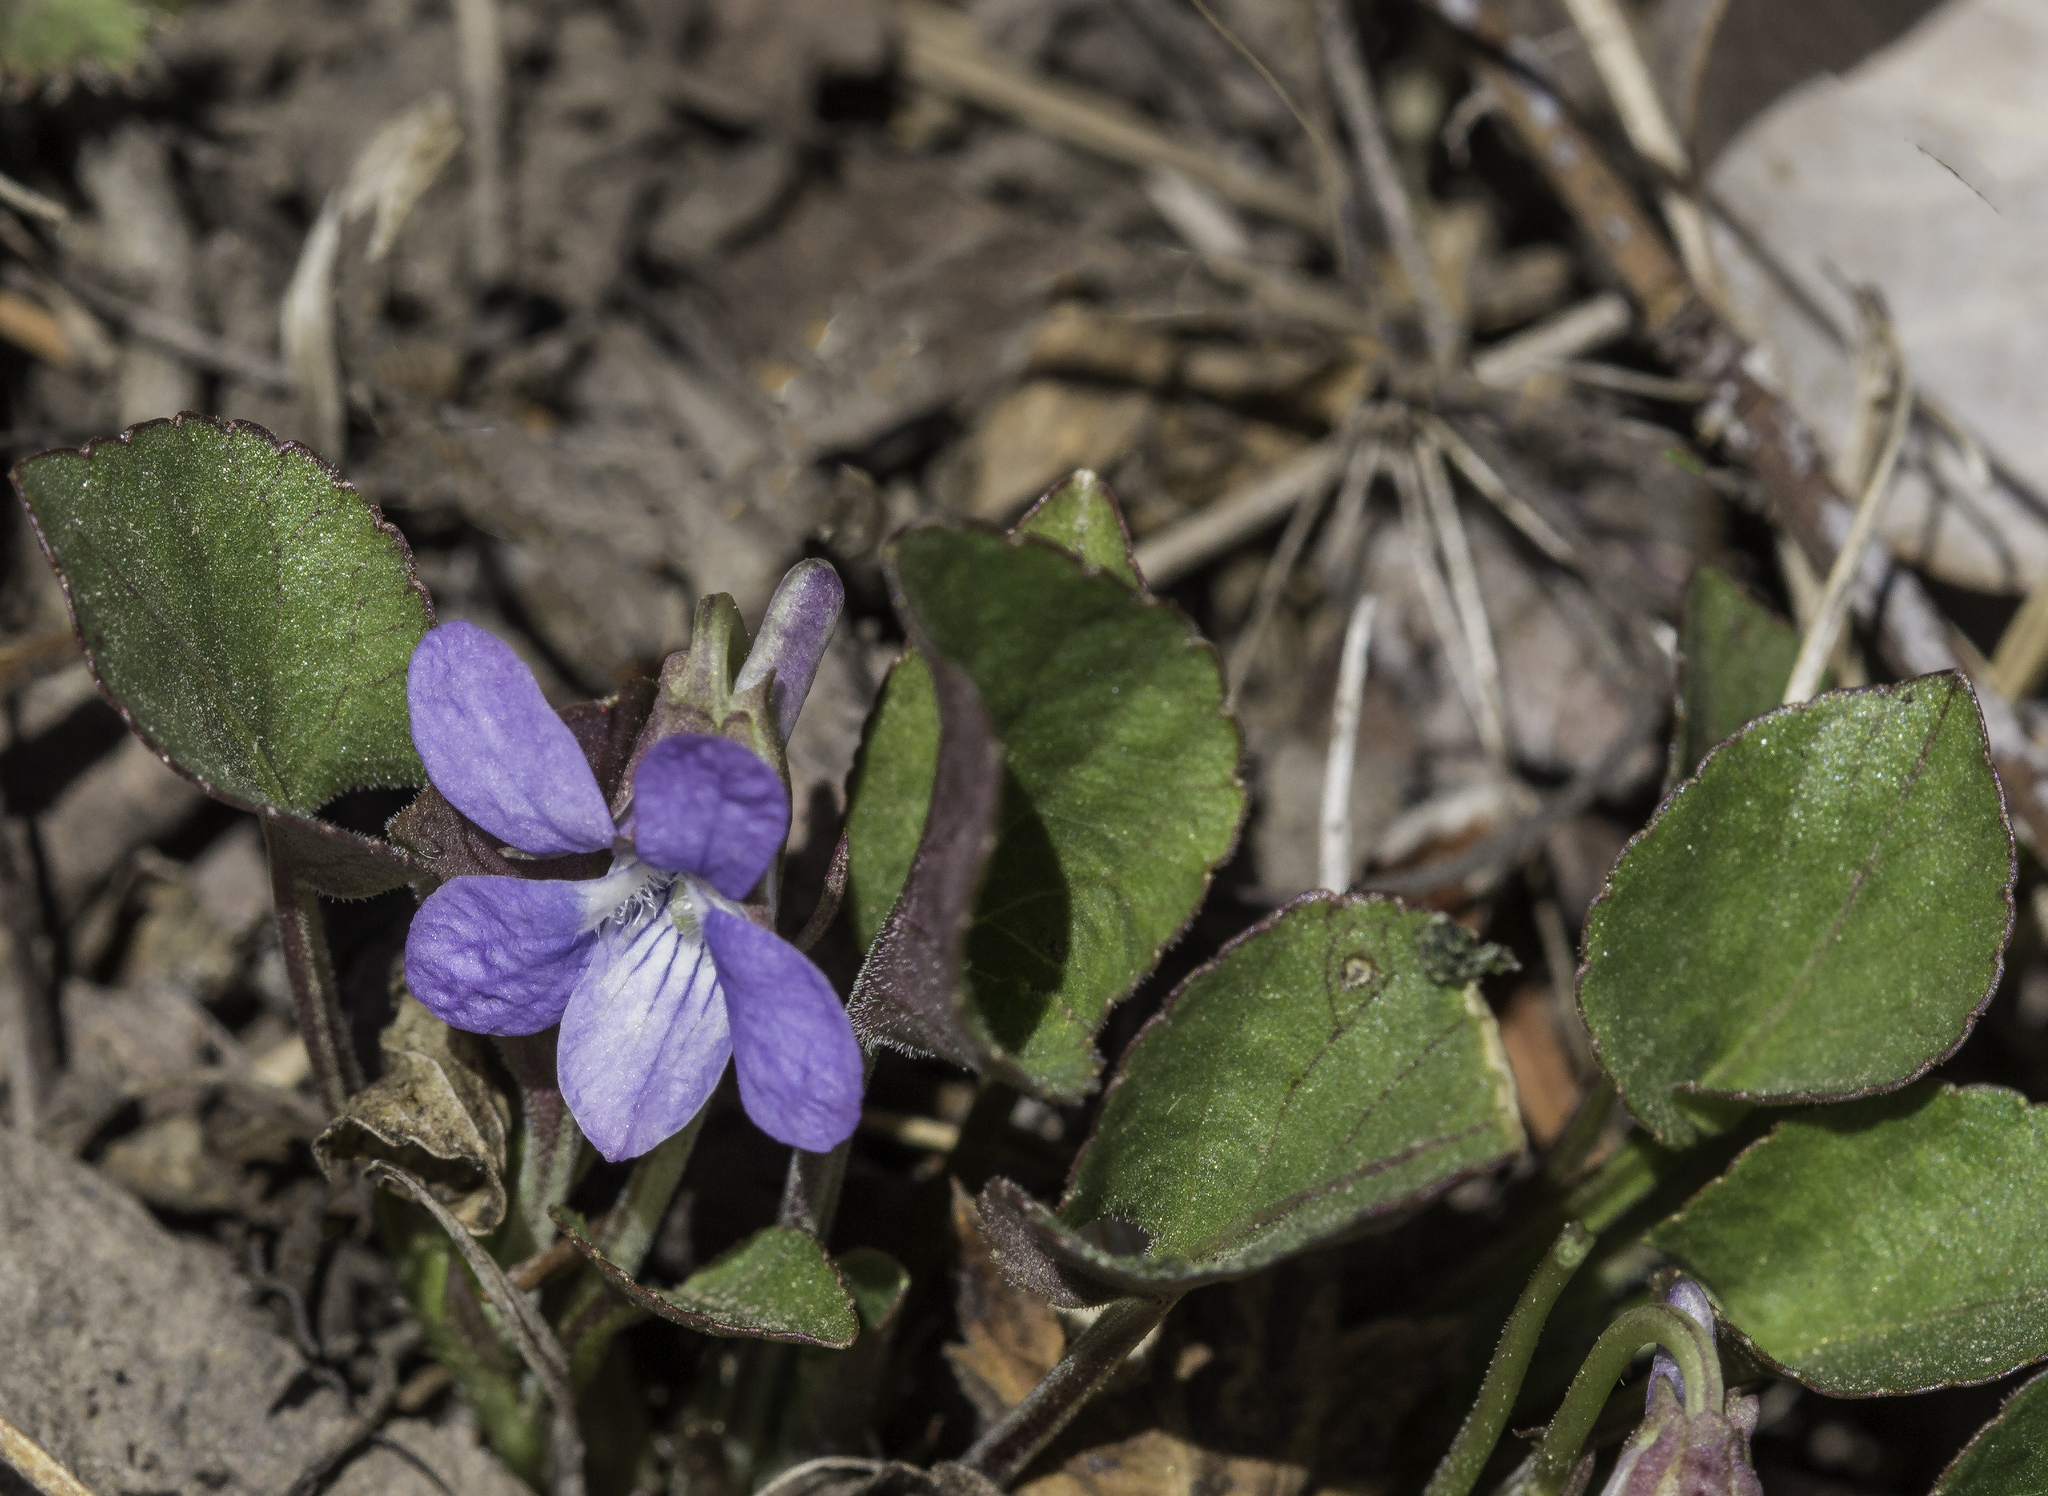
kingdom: Plantae
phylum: Tracheophyta
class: Magnoliopsida
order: Malpighiales
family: Violaceae
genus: Viola
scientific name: Viola adunca
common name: Sand violet
